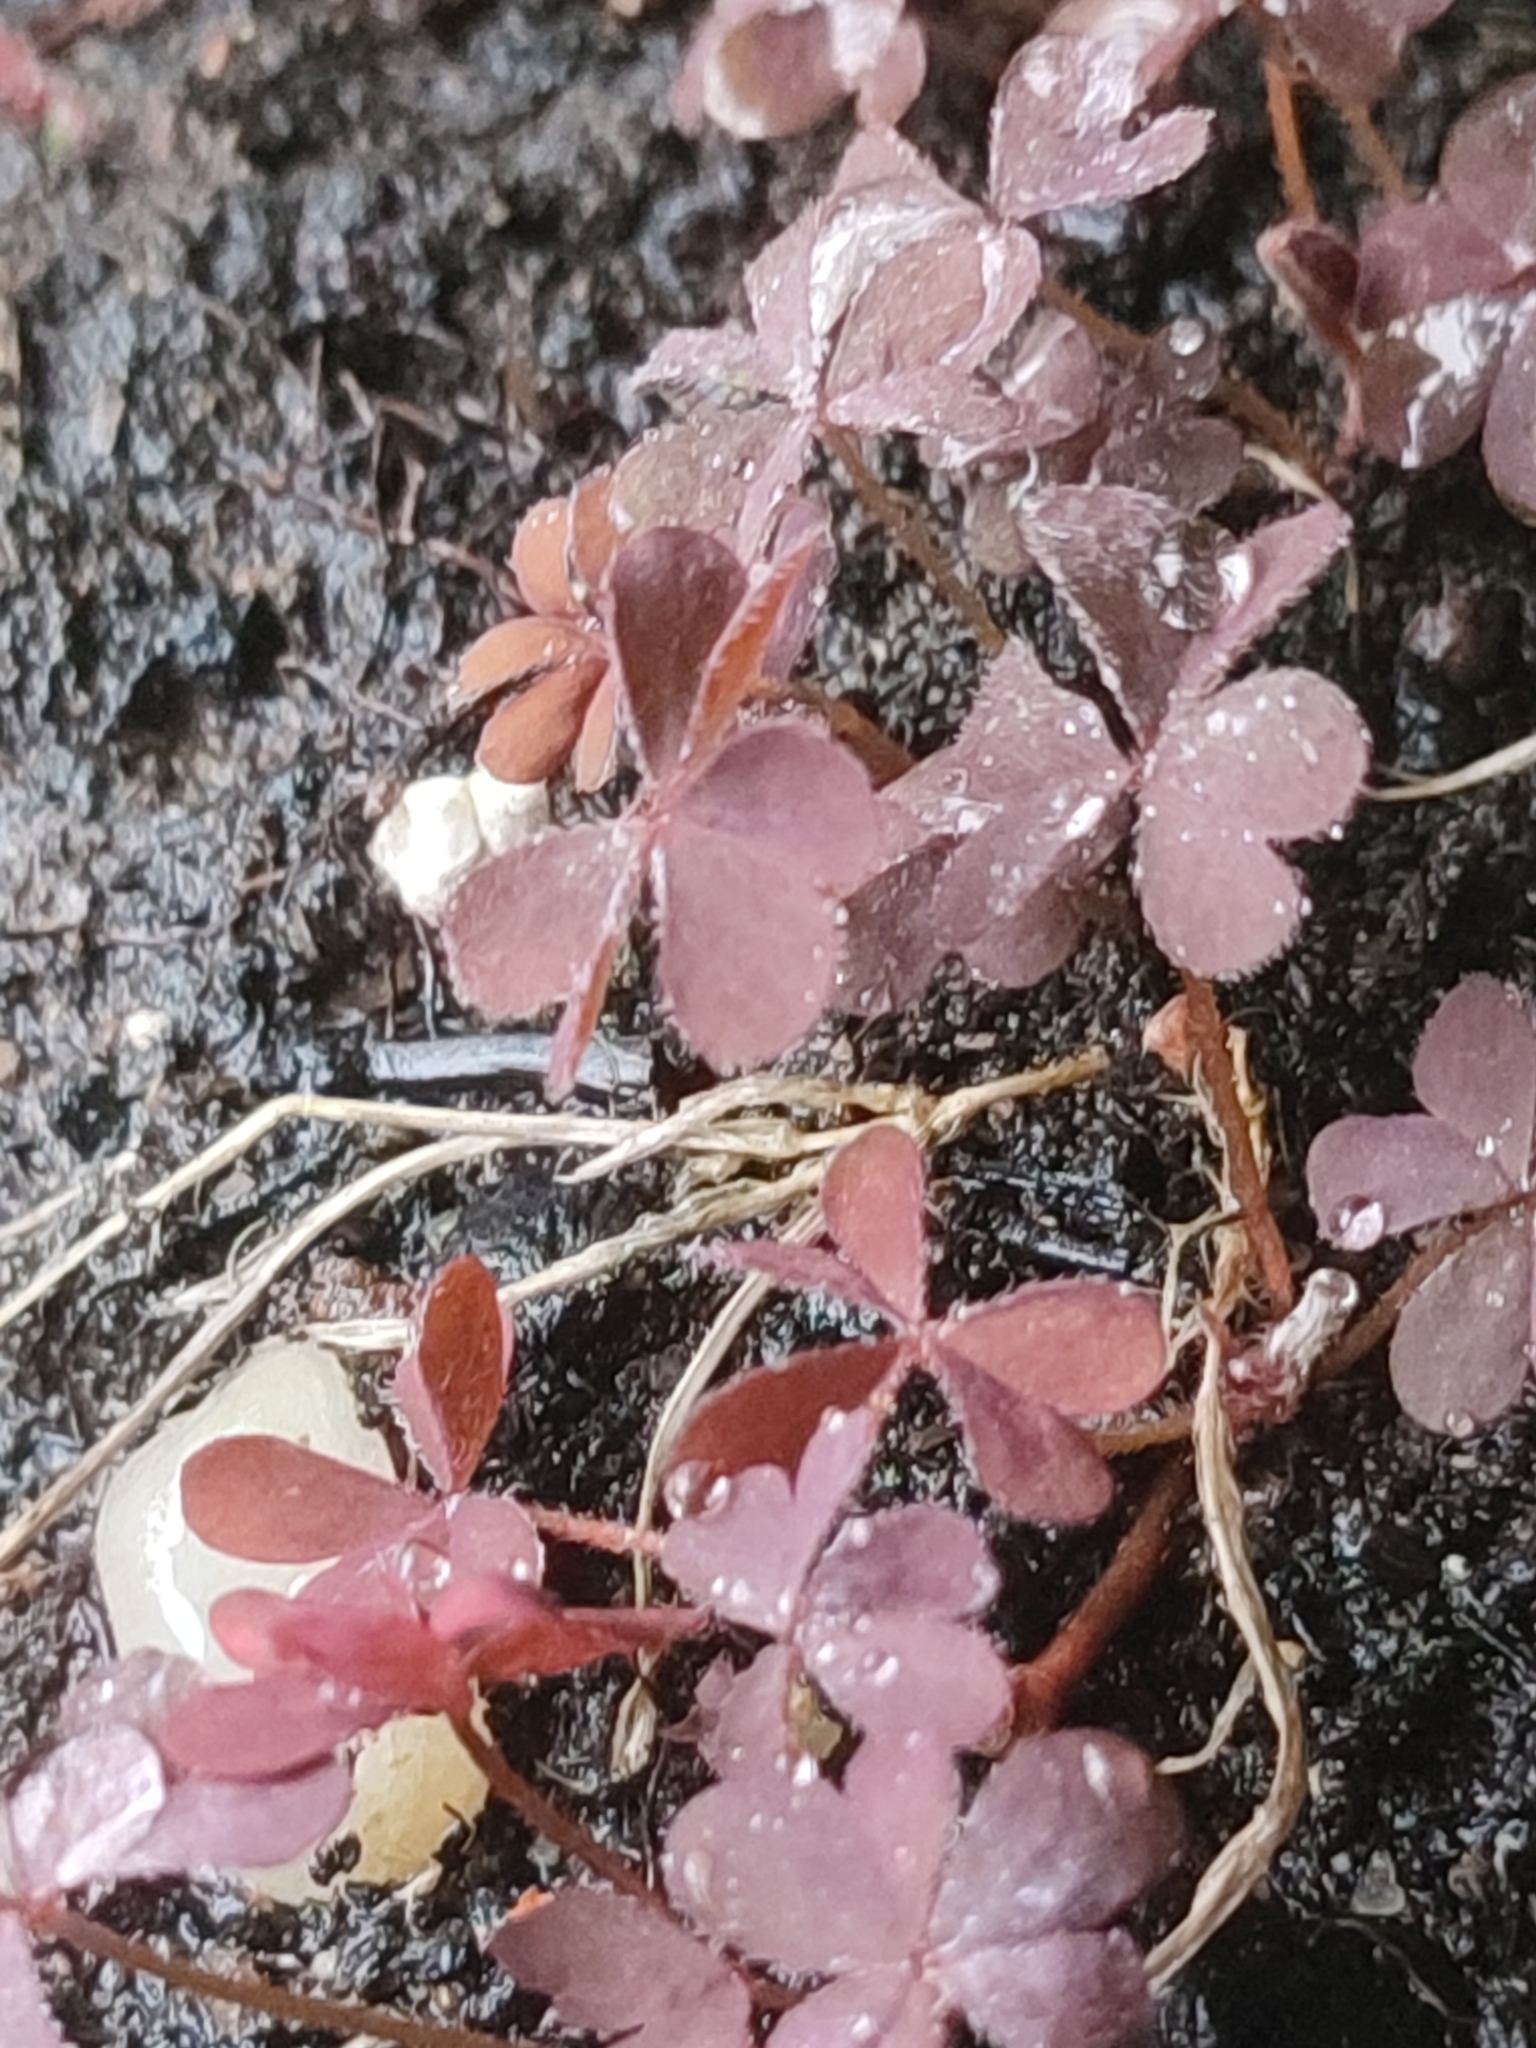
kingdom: Plantae
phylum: Tracheophyta
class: Magnoliopsida
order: Oxalidales
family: Oxalidaceae
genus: Oxalis
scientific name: Oxalis corniculata
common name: Procumbent yellow-sorrel
